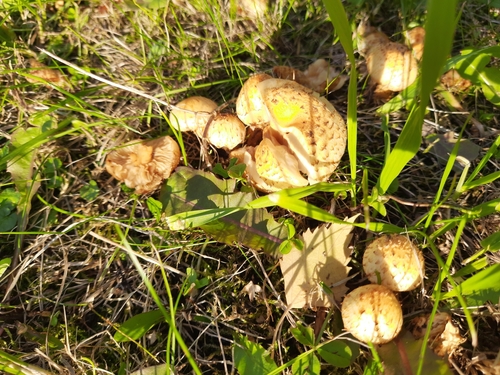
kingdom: Fungi
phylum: Basidiomycota
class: Agaricomycetes
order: Agaricales
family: Strophariaceae
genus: Pholiota
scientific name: Pholiota
